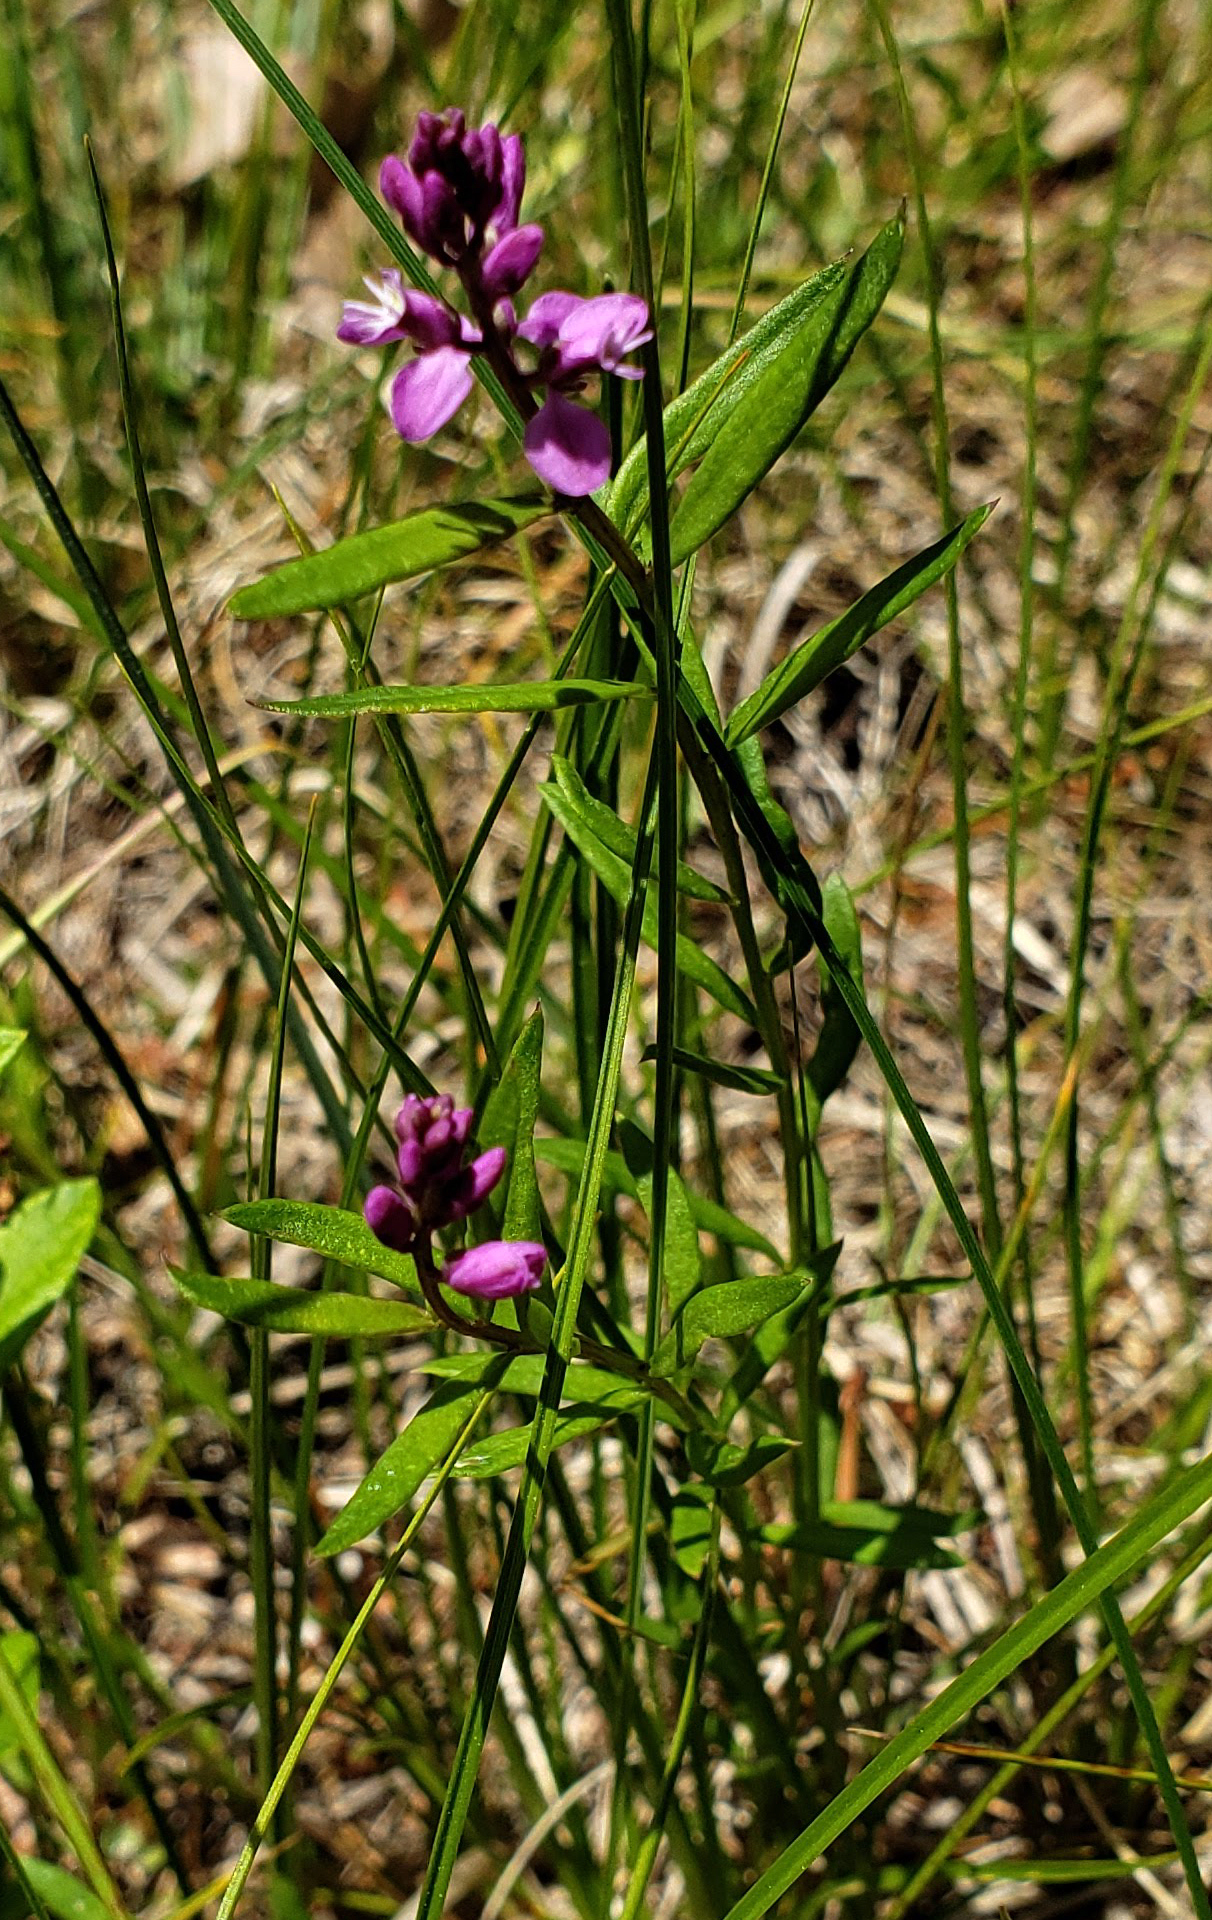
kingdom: Plantae
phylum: Tracheophyta
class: Magnoliopsida
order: Fabales
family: Polygalaceae
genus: Polygala
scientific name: Polygala polygama
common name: Bitter milkwort
